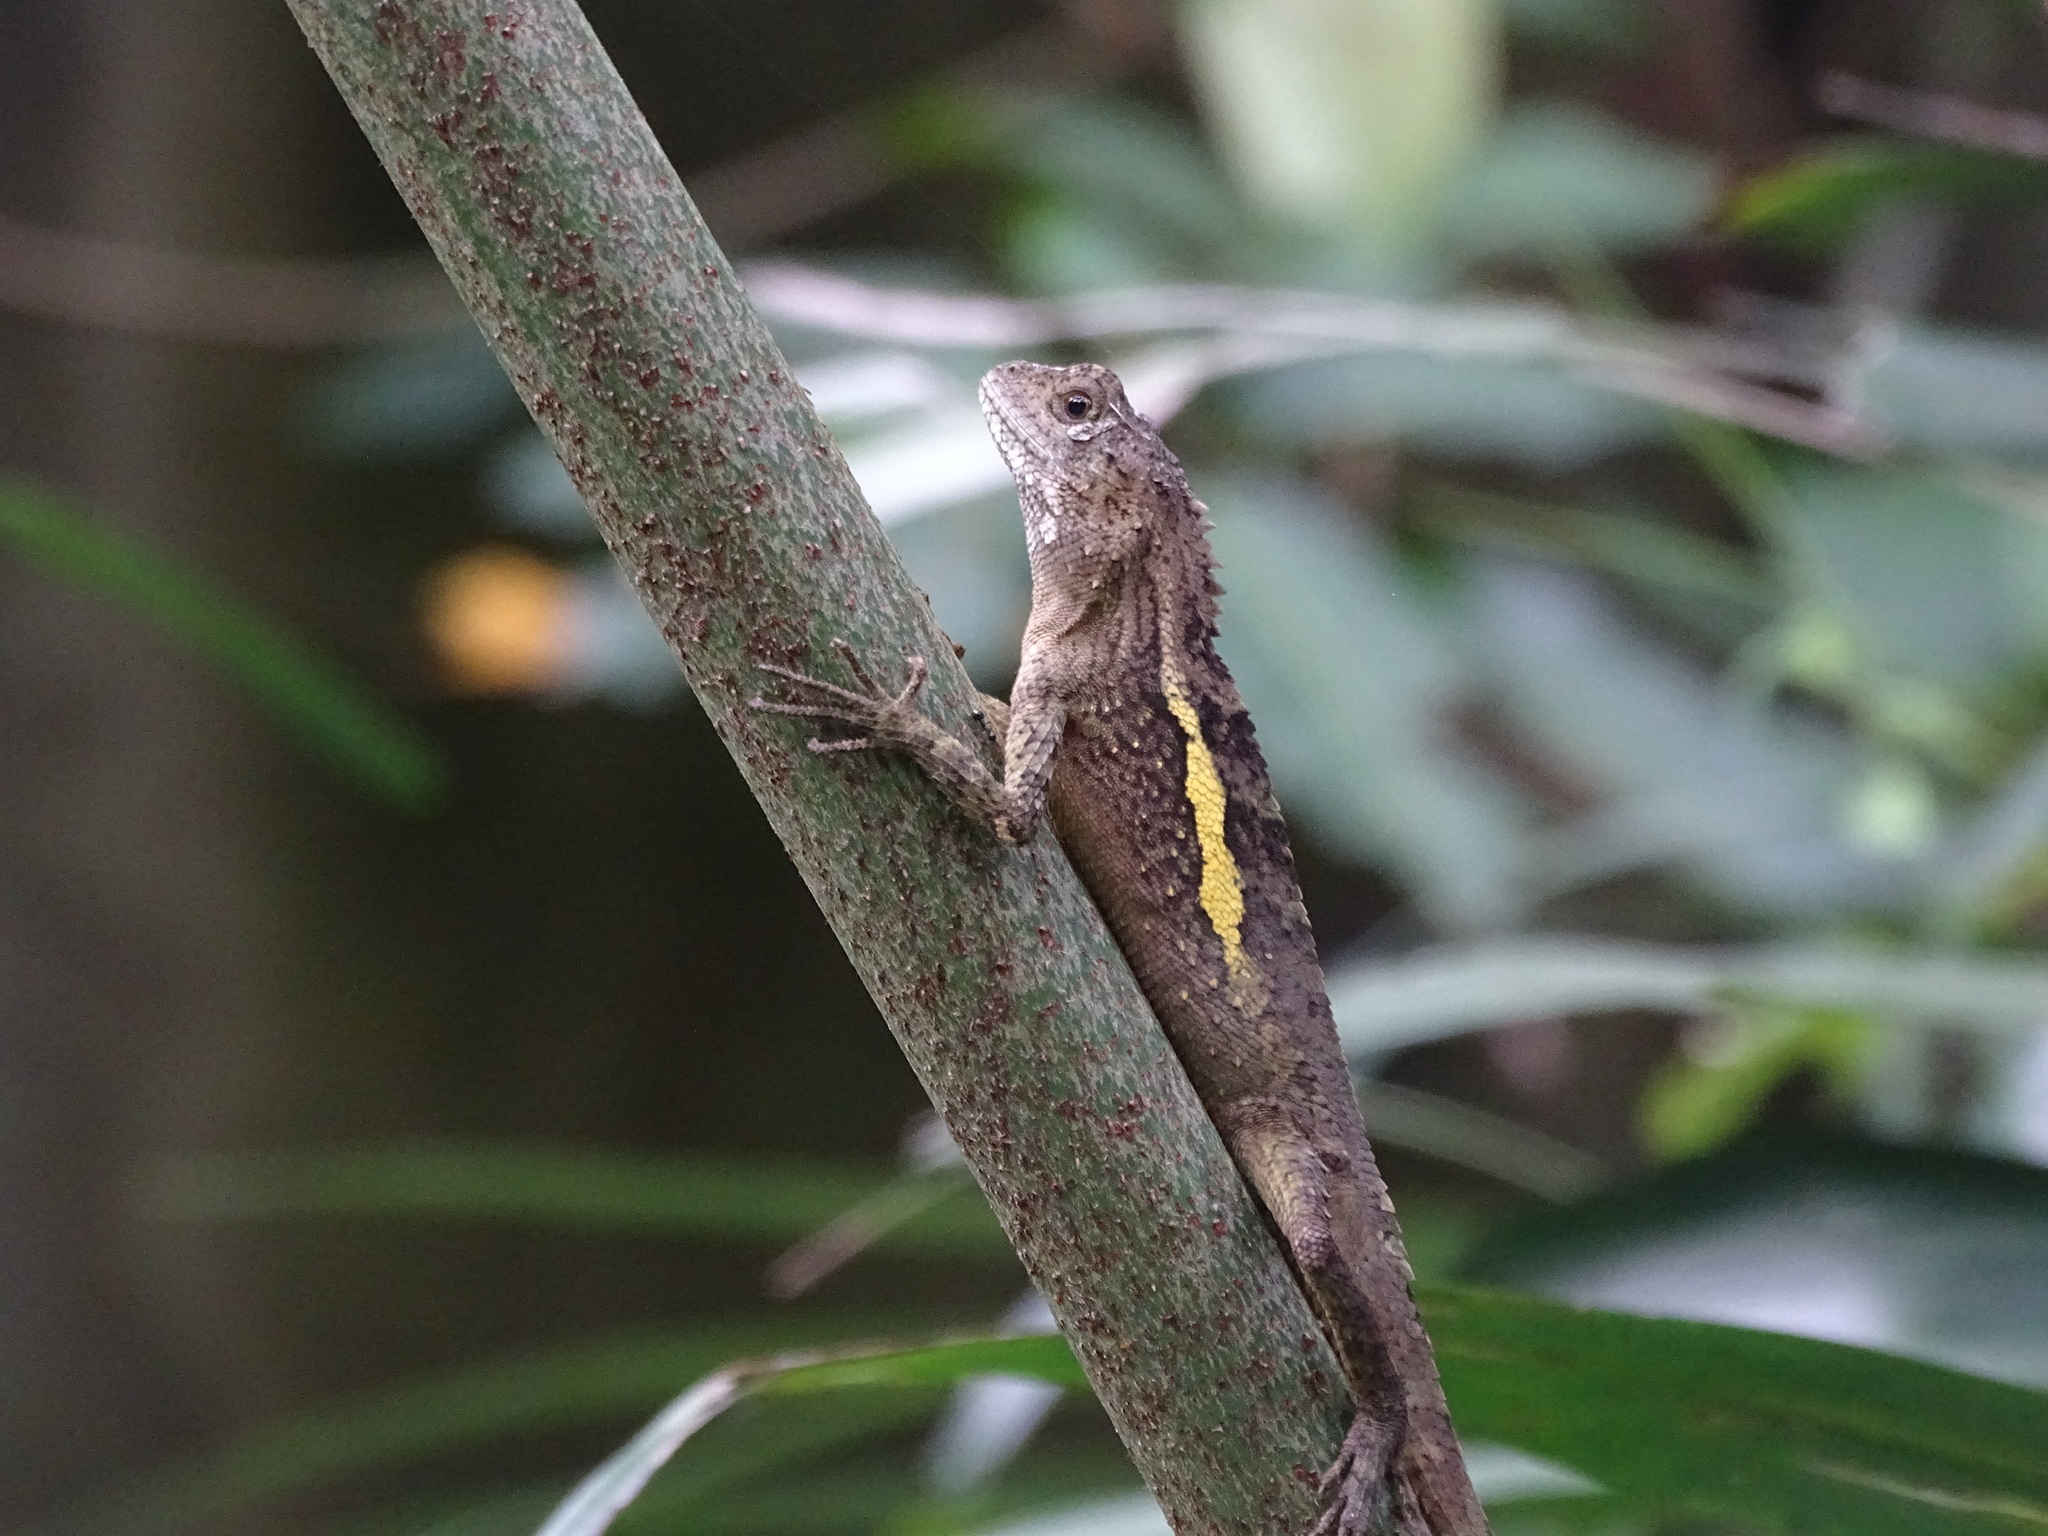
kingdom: Animalia
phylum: Chordata
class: Squamata
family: Agamidae
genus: Diploderma
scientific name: Diploderma swinhonis
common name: Taiwan japalure
